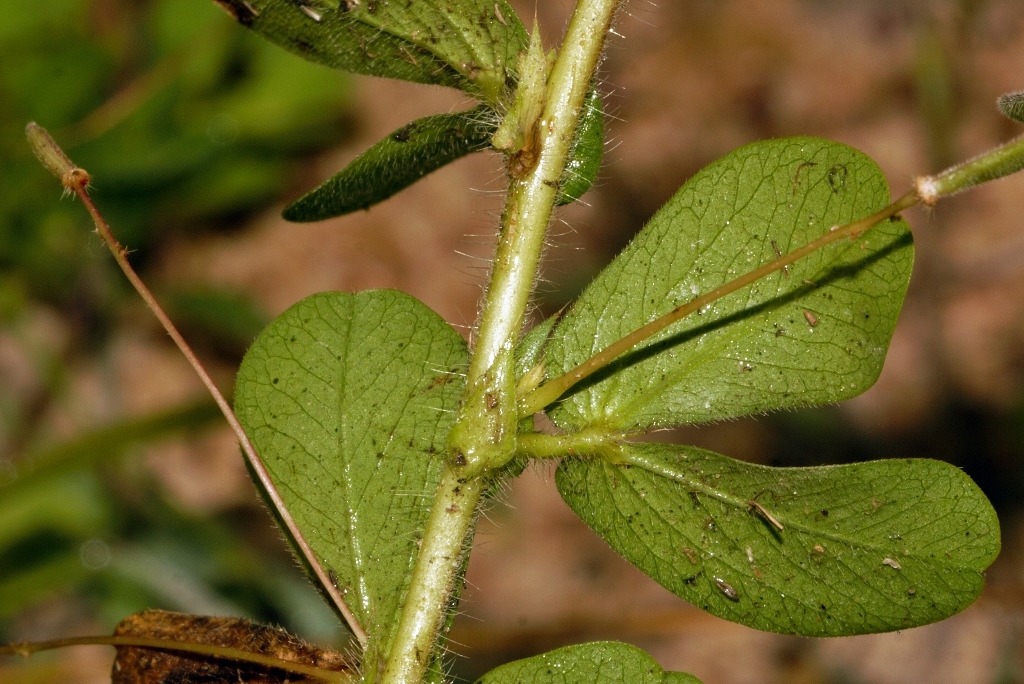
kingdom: Plantae
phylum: Tracheophyta
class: Magnoliopsida
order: Fabales
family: Fabaceae
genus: Chamaecrista
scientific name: Chamaecrista rotundifolia
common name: Round-leaf cassia
